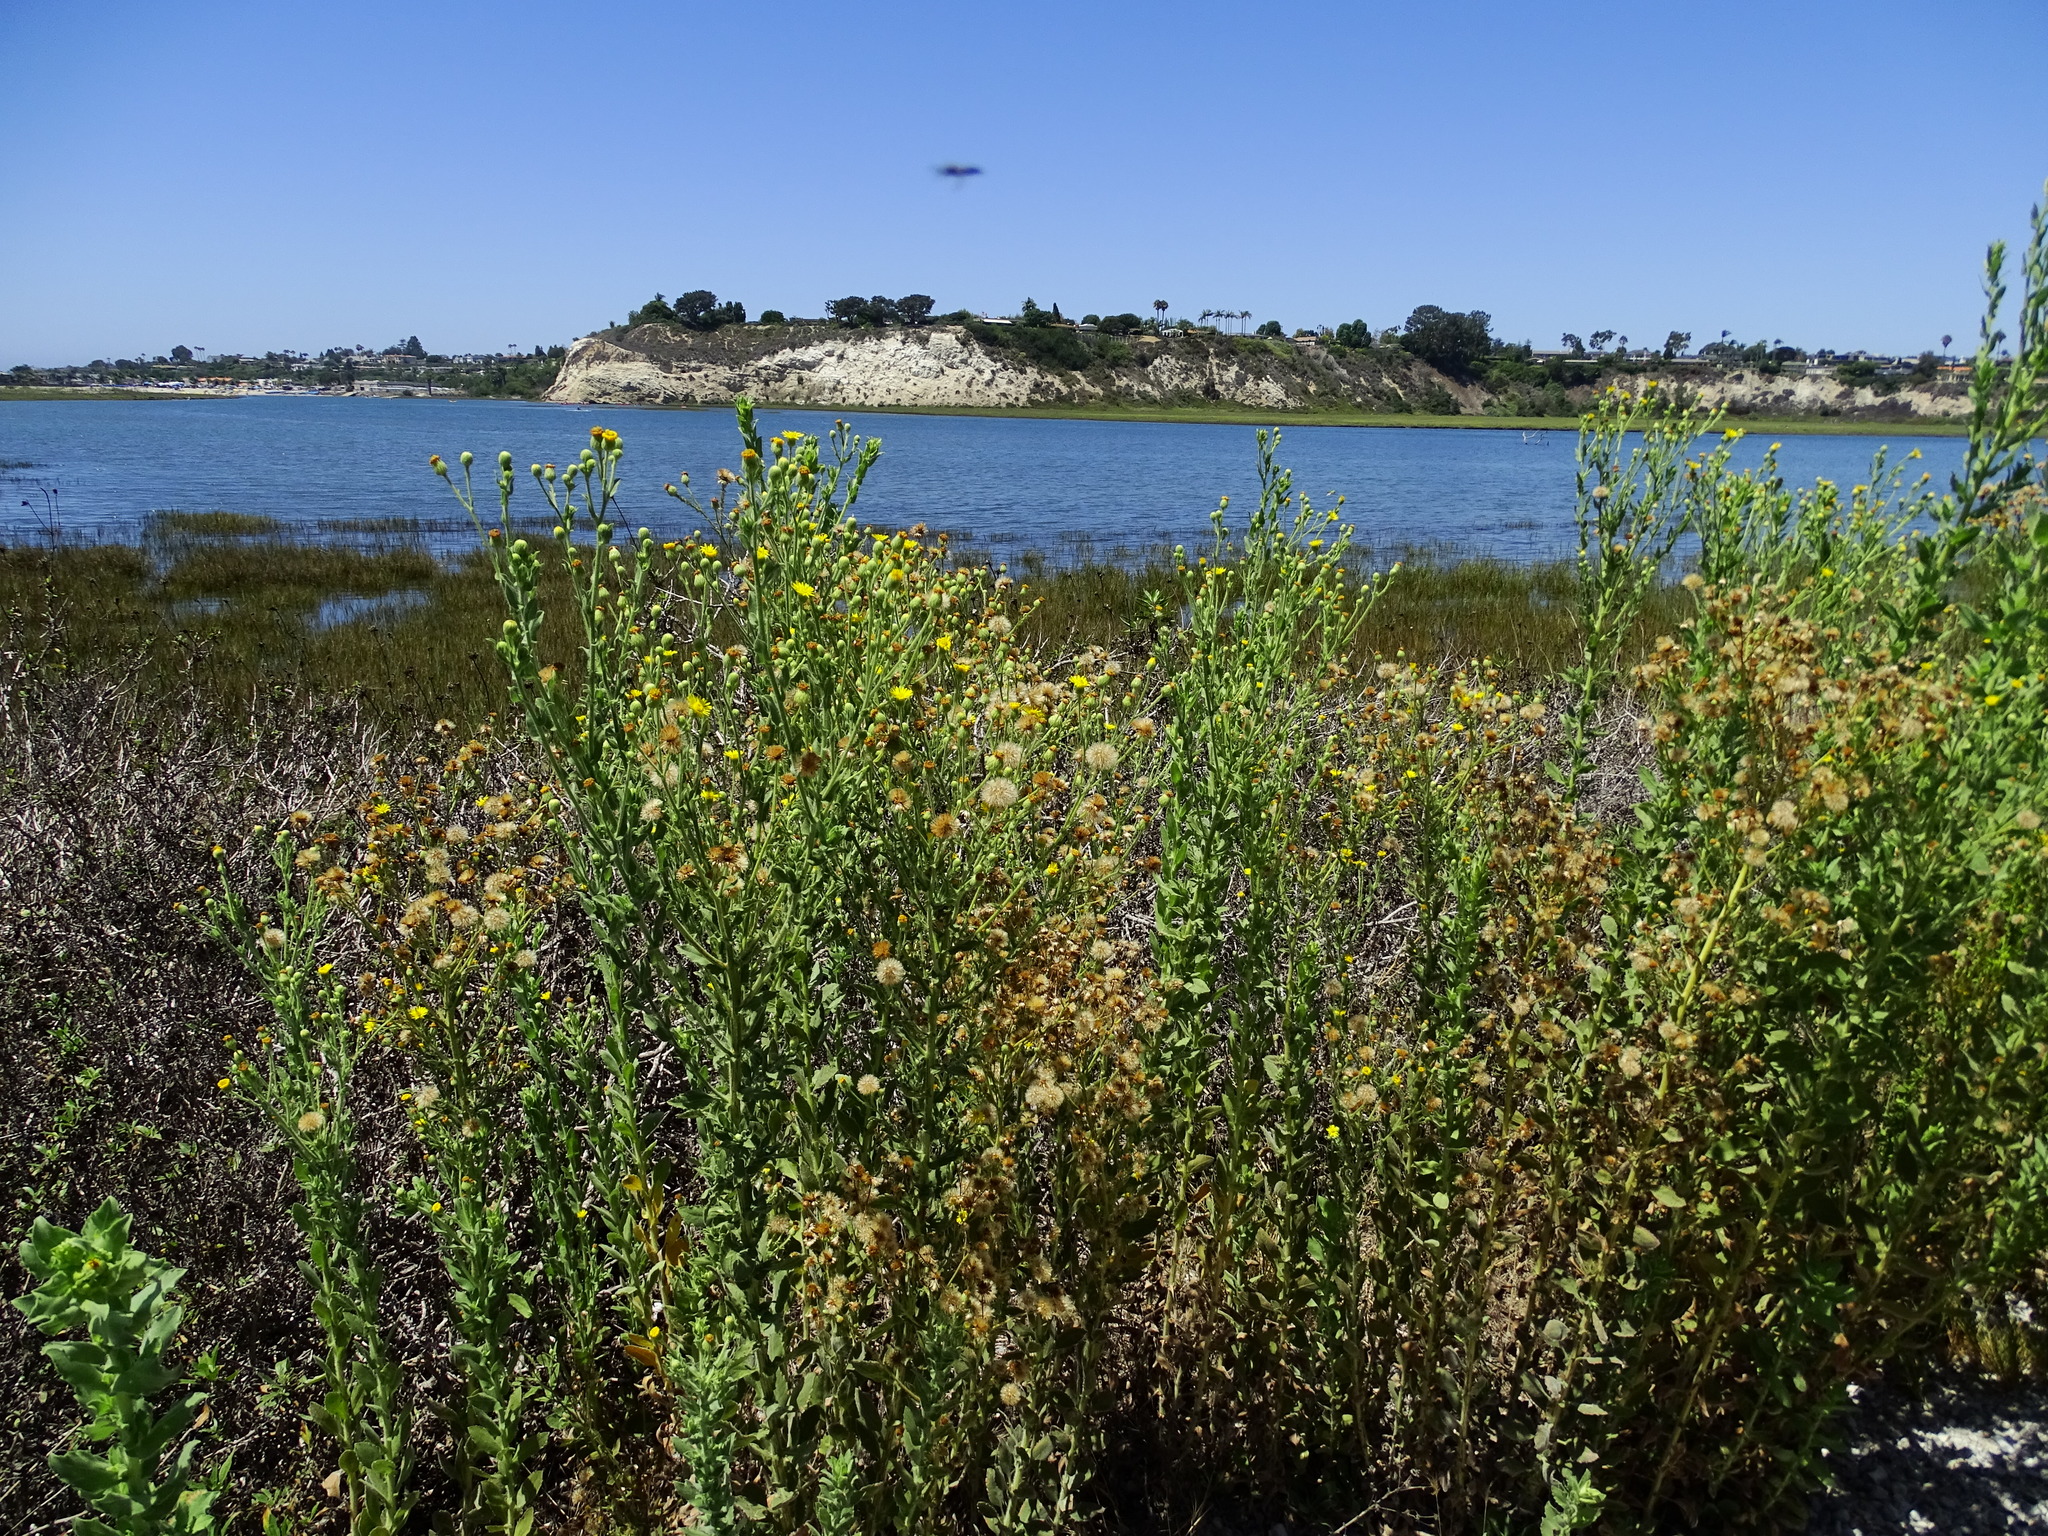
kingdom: Plantae
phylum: Tracheophyta
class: Magnoliopsida
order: Asterales
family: Asteraceae
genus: Heterotheca
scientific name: Heterotheca grandiflora
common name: Telegraphweed
